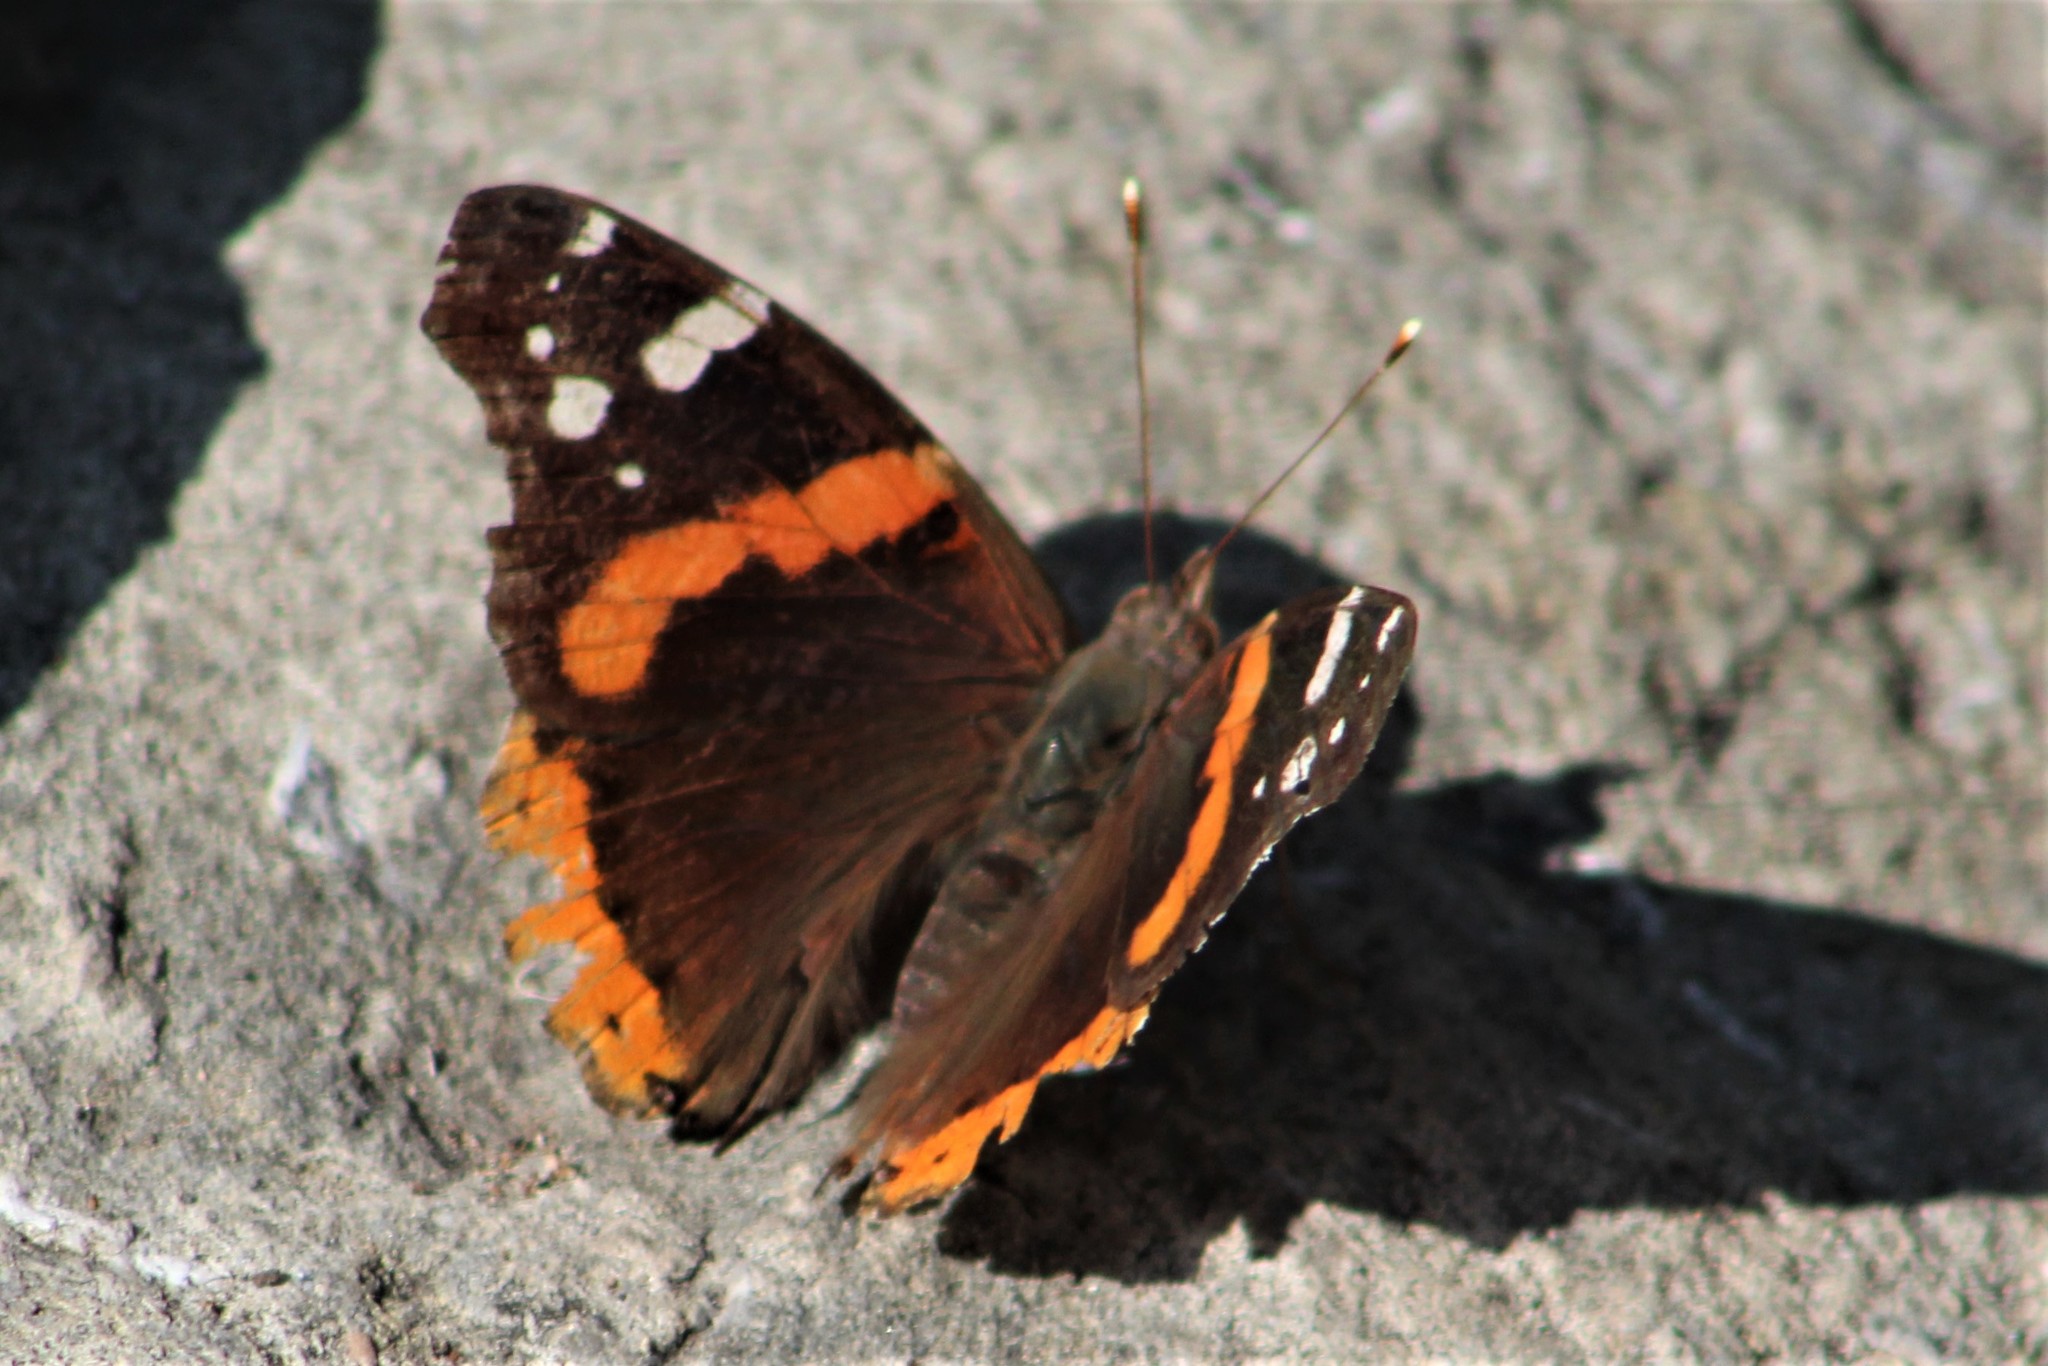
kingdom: Animalia
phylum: Arthropoda
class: Insecta
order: Lepidoptera
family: Nymphalidae
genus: Vanessa
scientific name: Vanessa atalanta
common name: Red admiral
